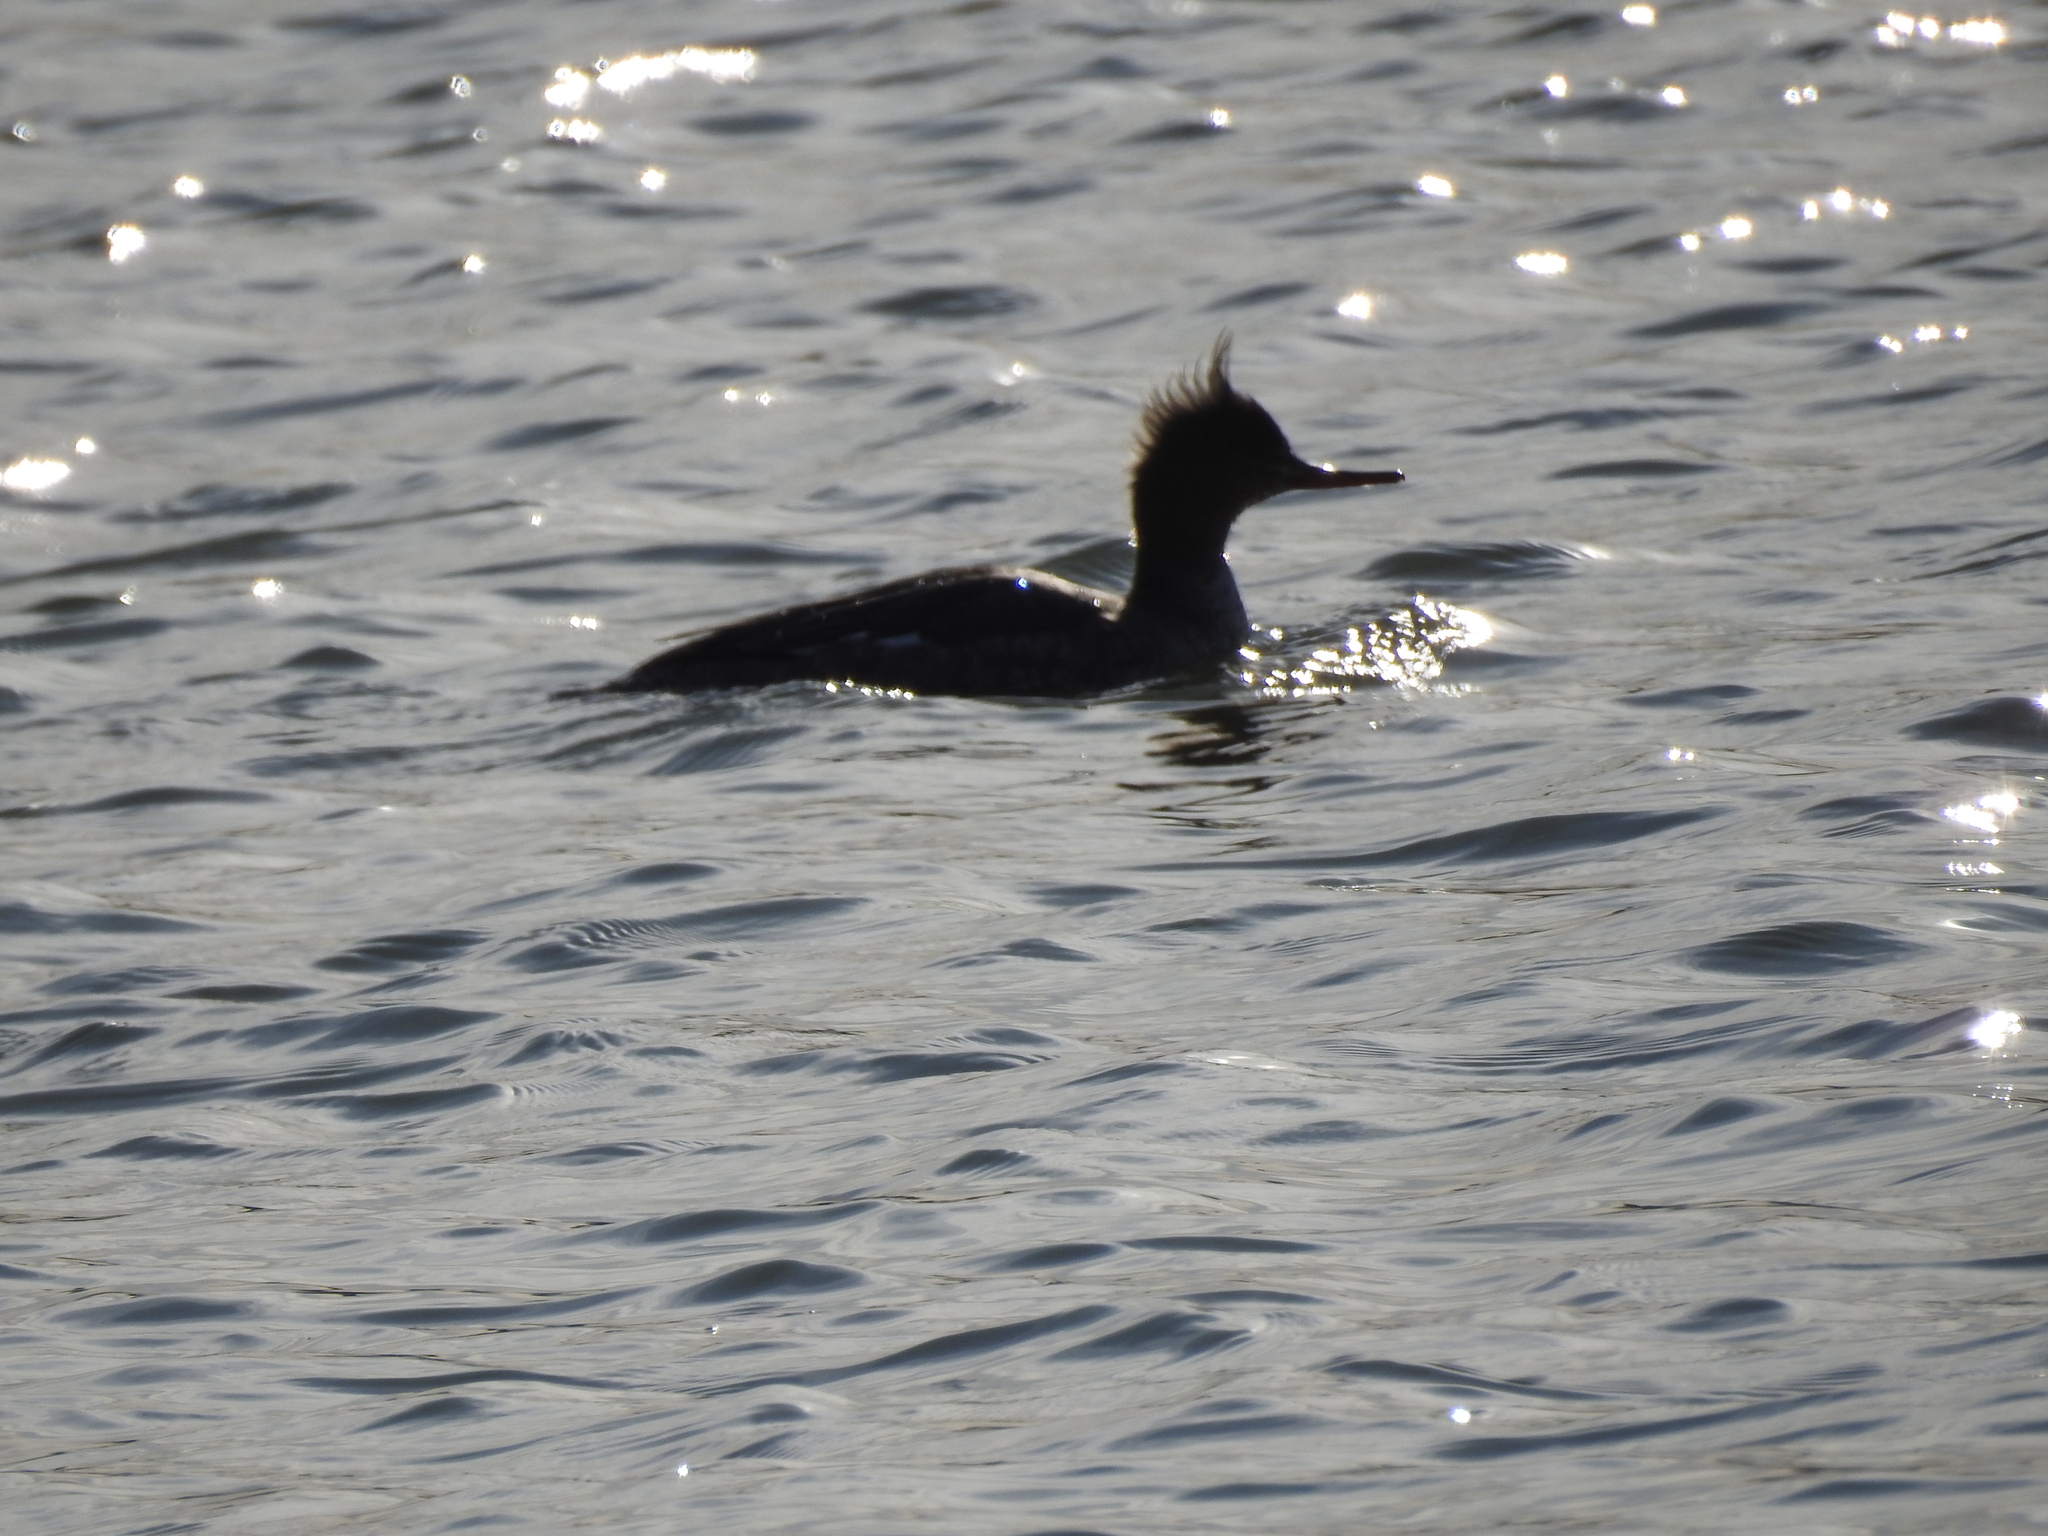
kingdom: Animalia
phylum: Chordata
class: Aves
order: Anseriformes
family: Anatidae
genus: Mergus
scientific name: Mergus serrator
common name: Red-breasted merganser
